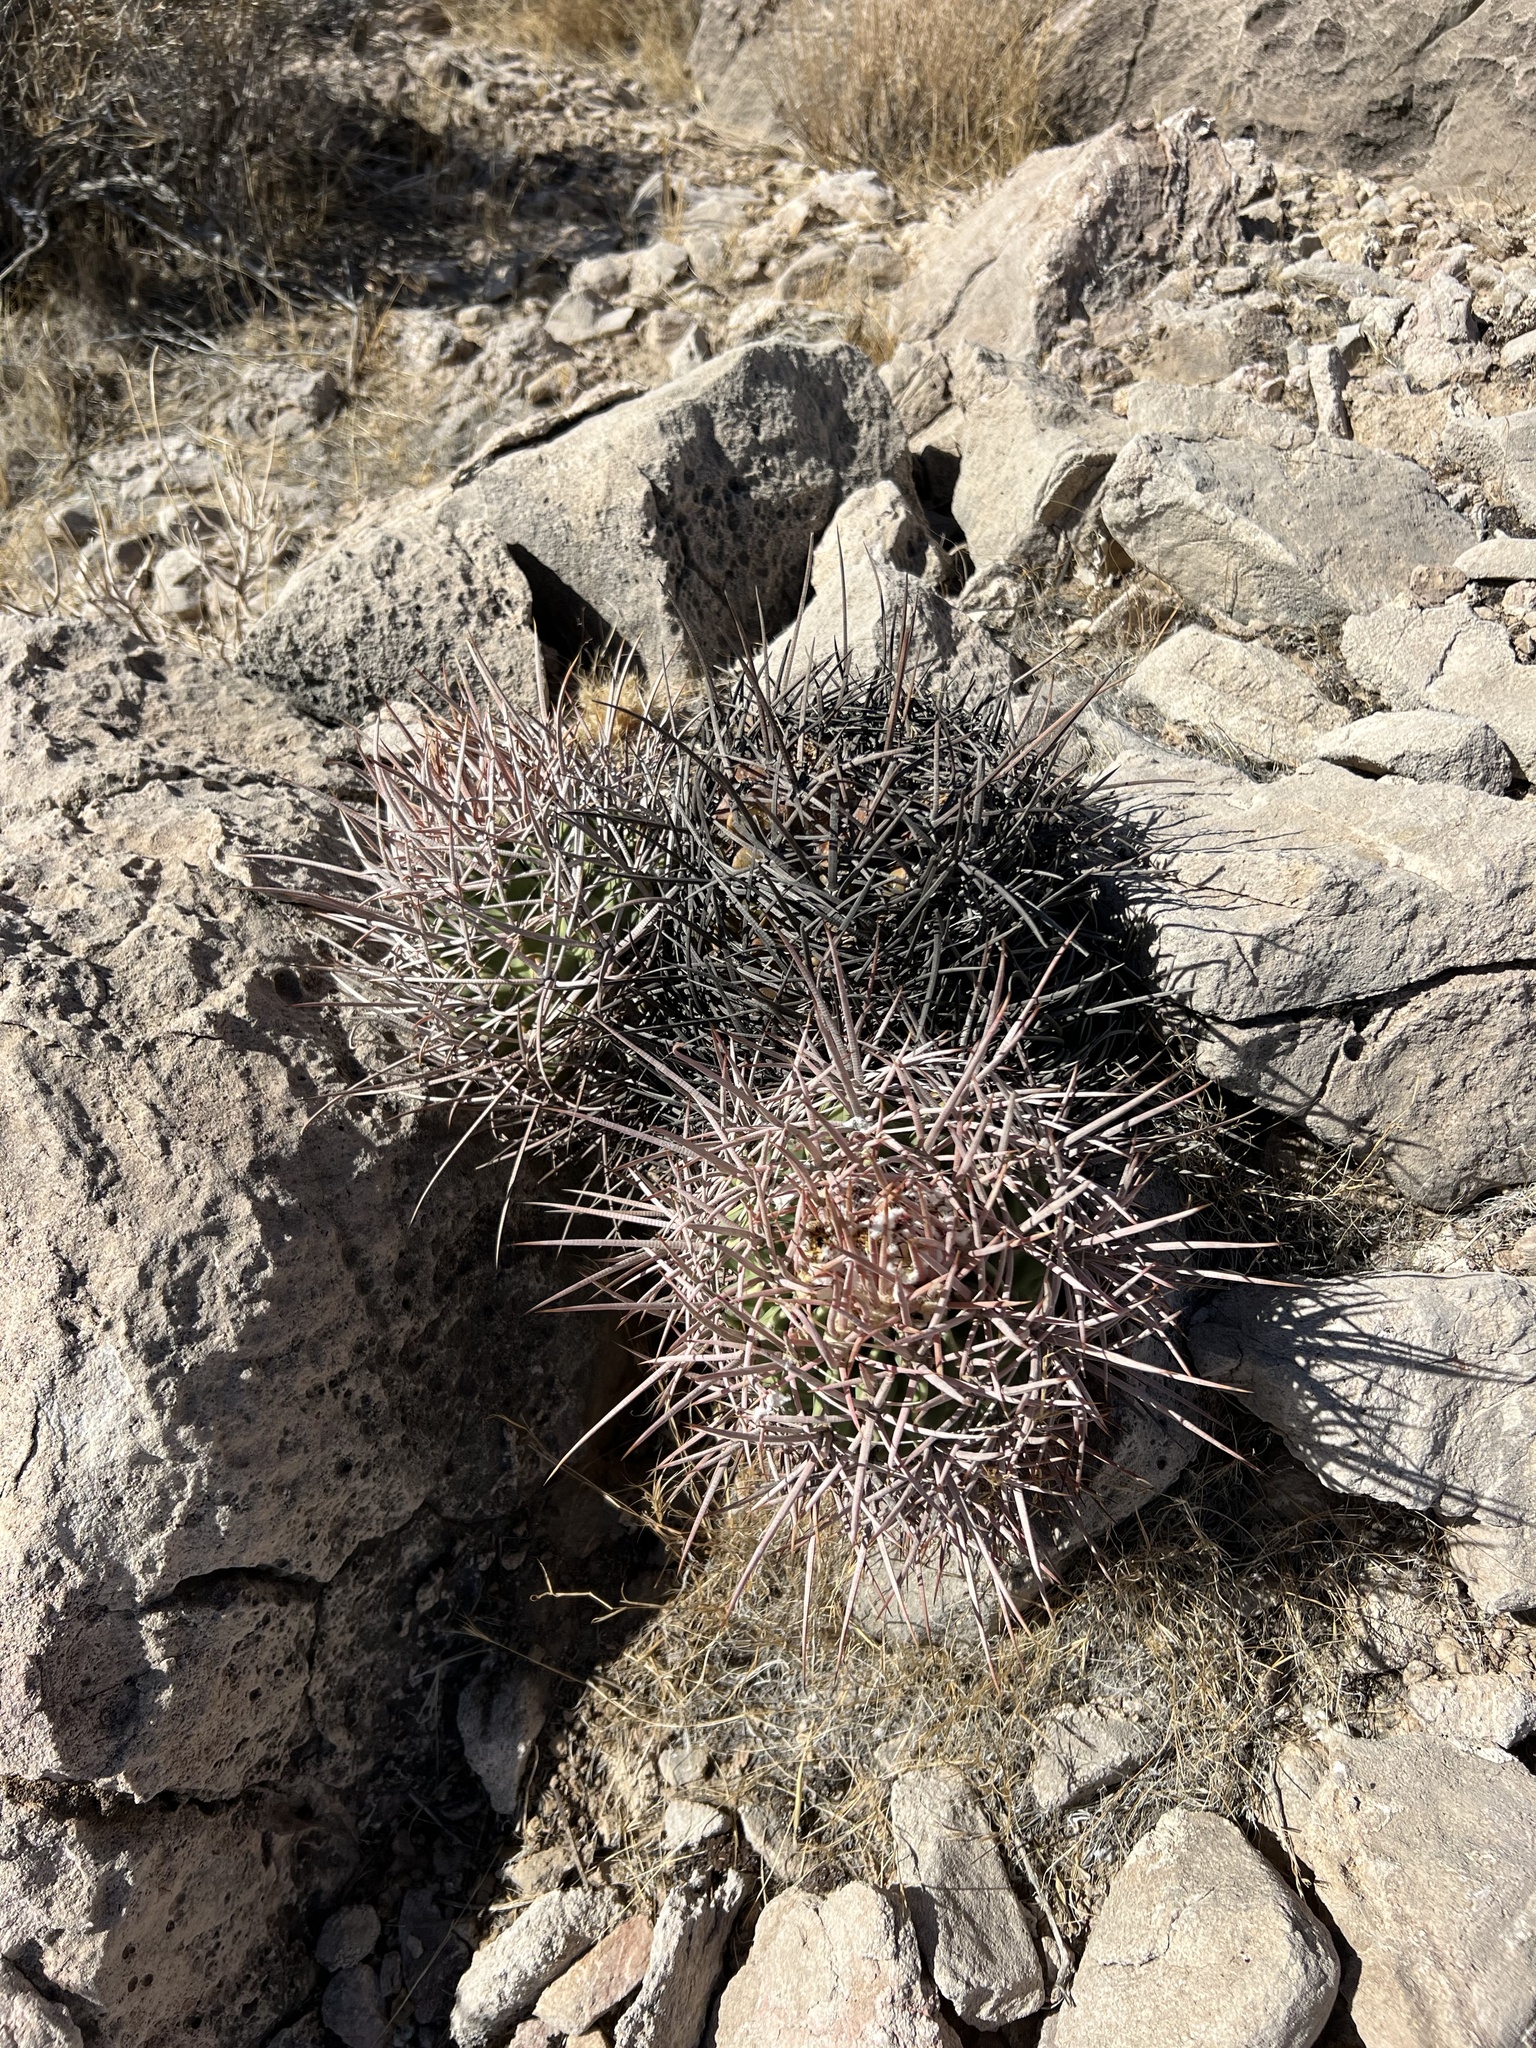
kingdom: Plantae
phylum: Tracheophyta
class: Magnoliopsida
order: Caryophyllales
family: Cactaceae
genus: Echinocactus
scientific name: Echinocactus polycephalus
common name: Cottontop cactus
